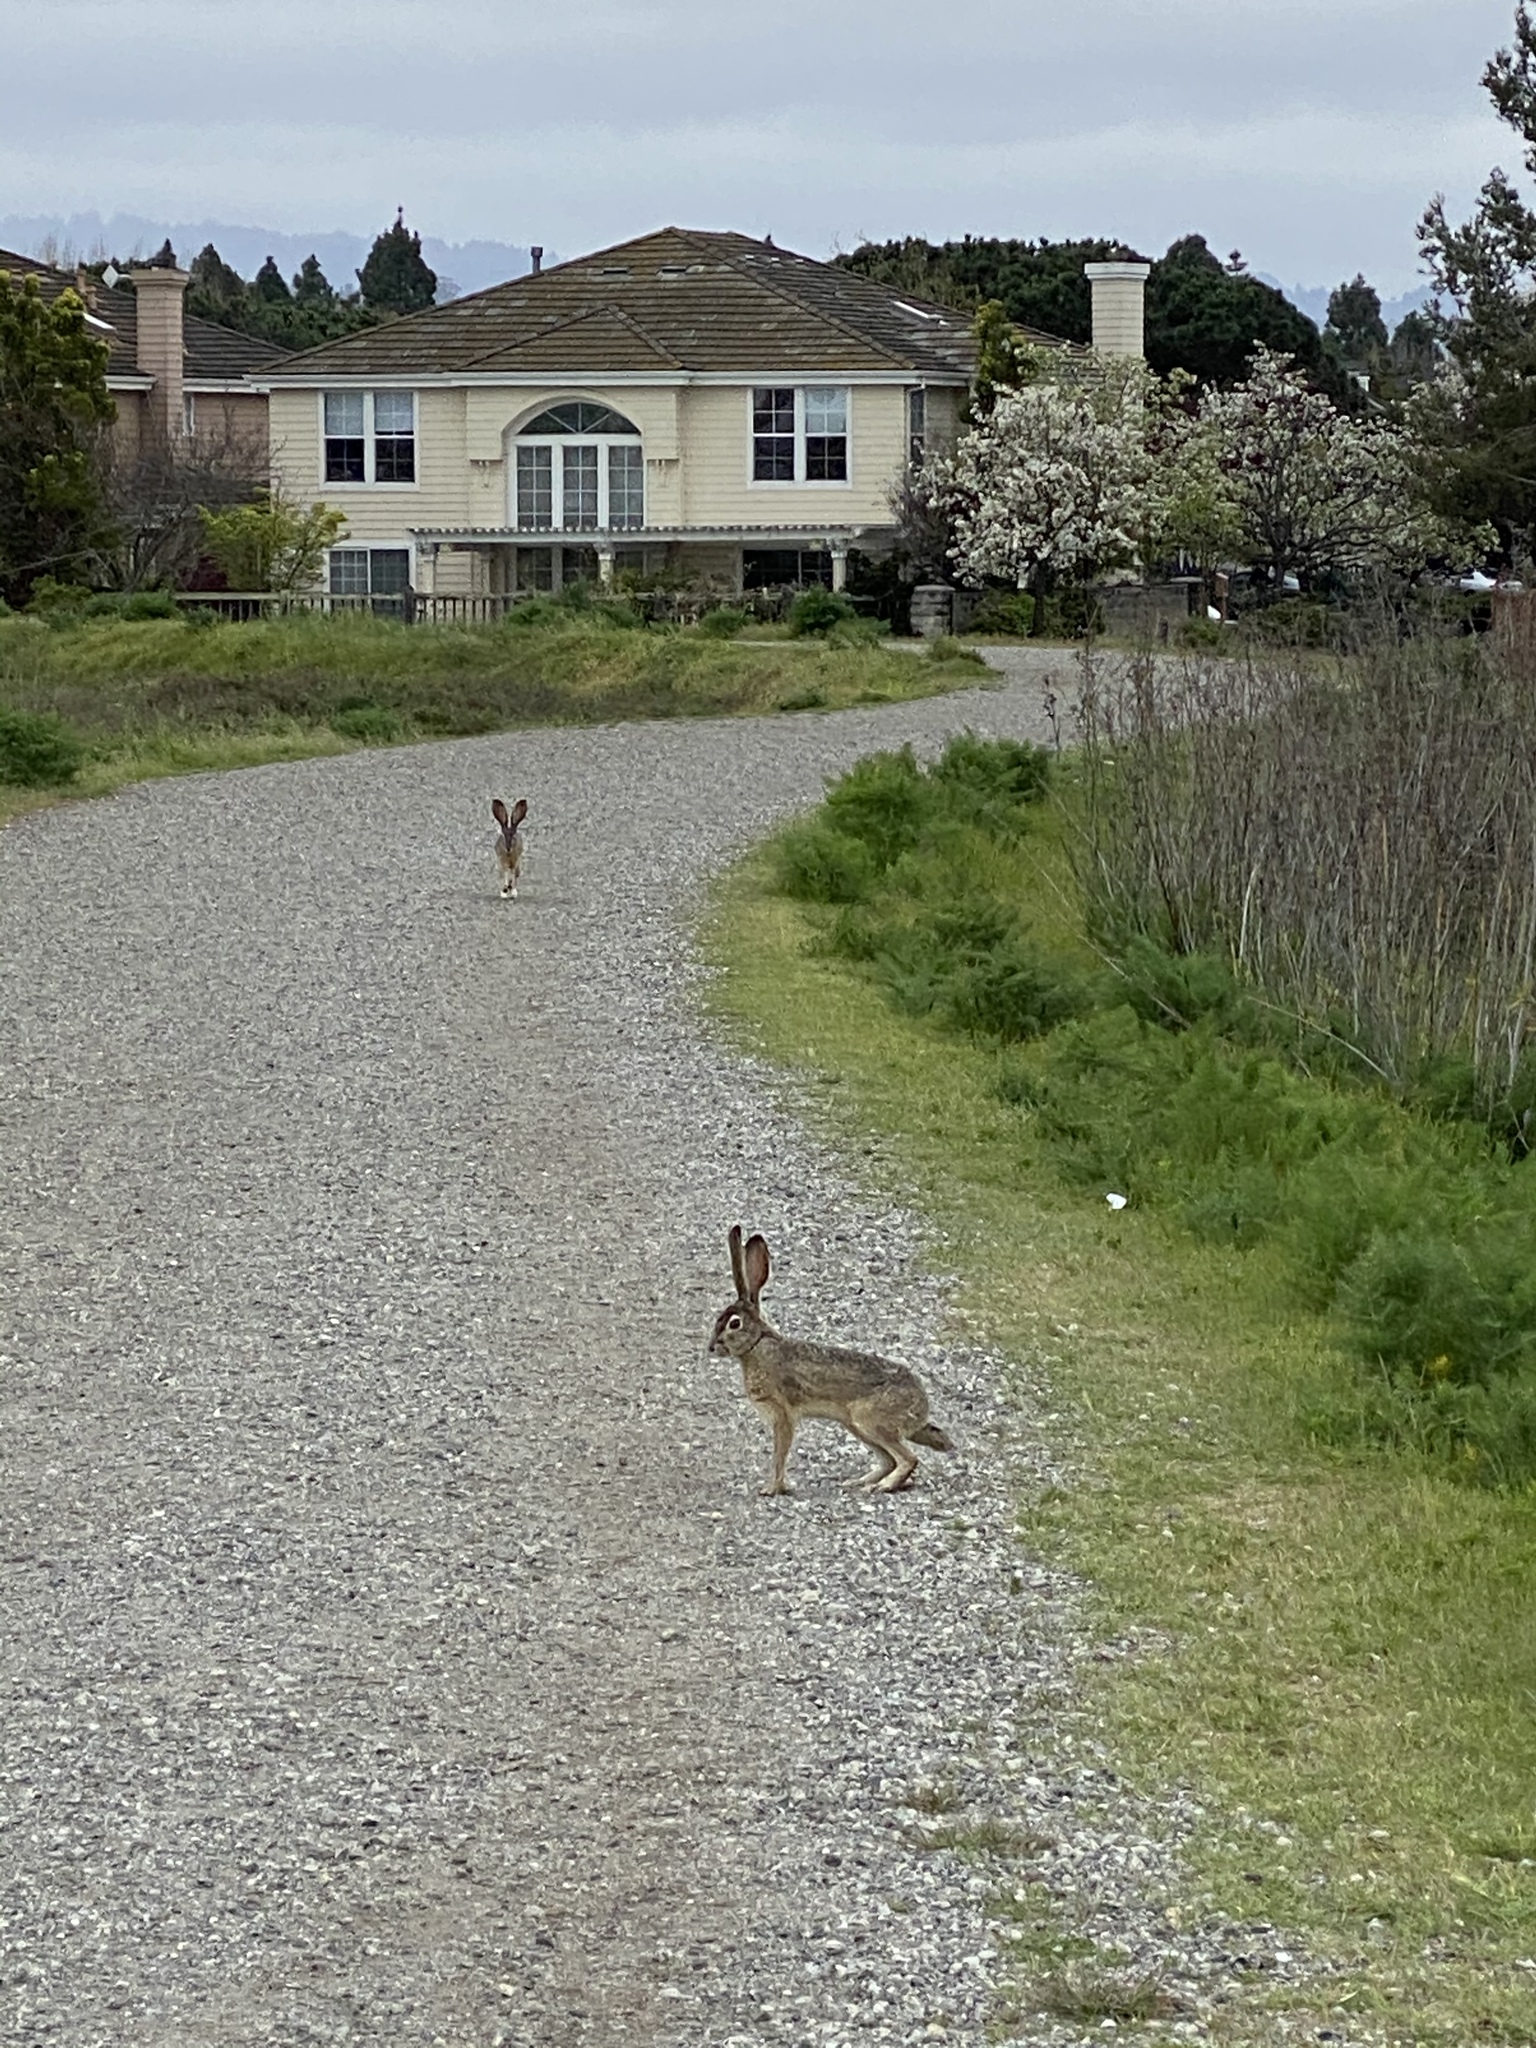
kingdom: Animalia
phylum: Chordata
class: Mammalia
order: Lagomorpha
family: Leporidae
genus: Lepus
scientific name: Lepus californicus
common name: Black-tailed jackrabbit
